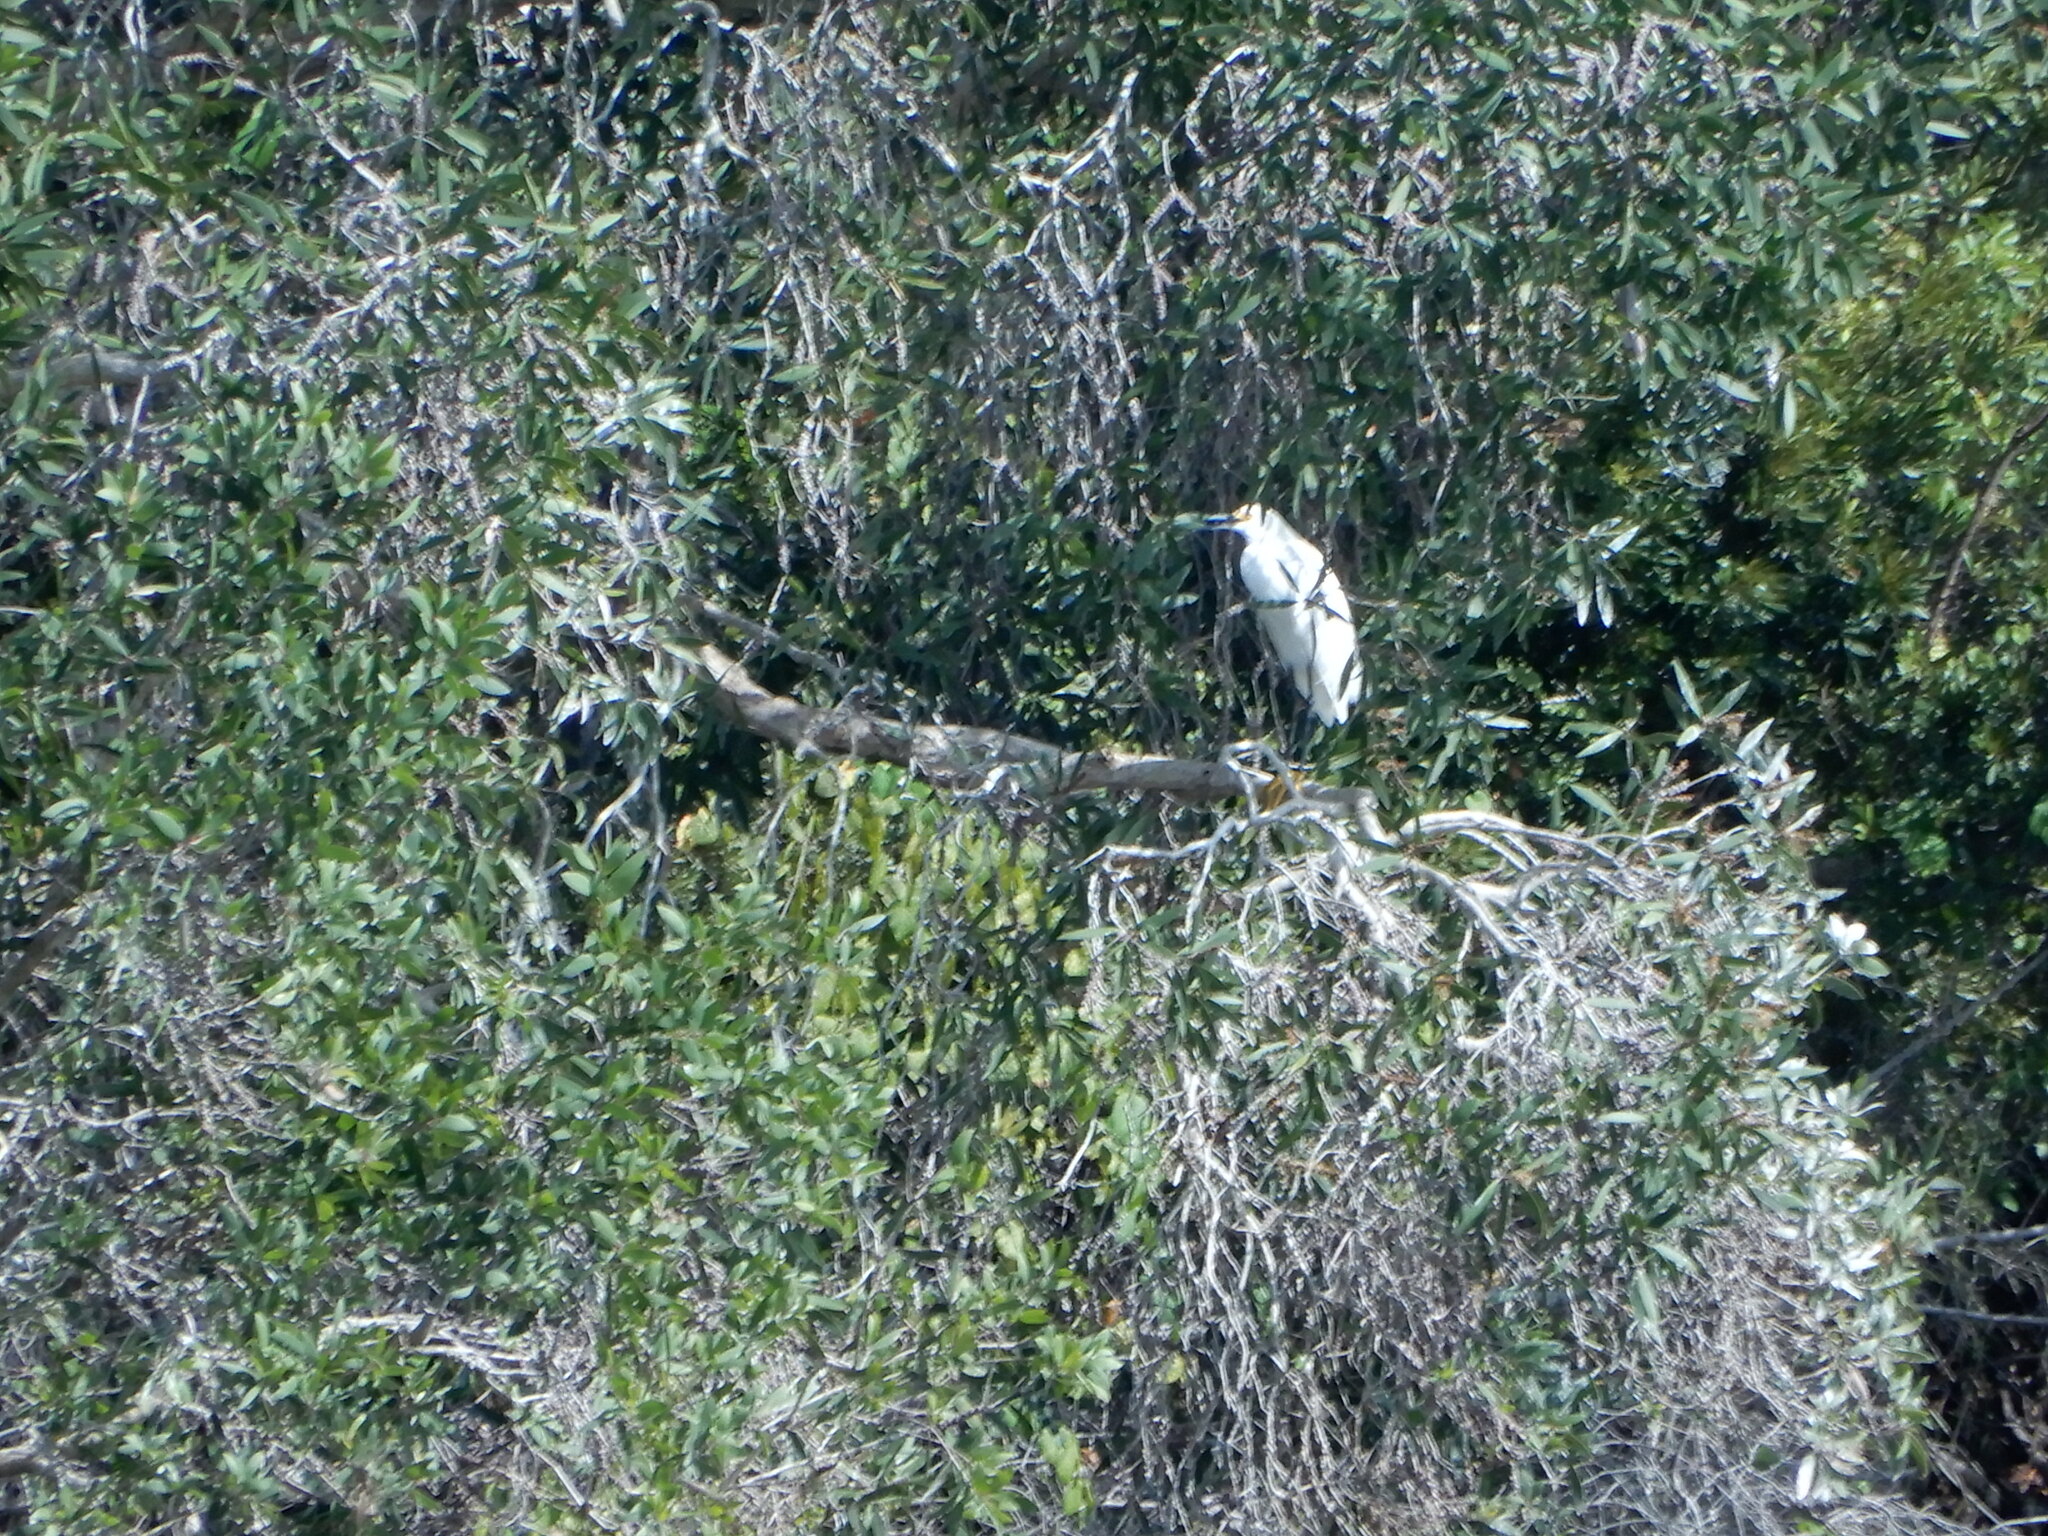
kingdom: Animalia
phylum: Chordata
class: Aves
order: Pelecaniformes
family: Ardeidae
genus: Egretta
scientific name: Egretta thula
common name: Snowy egret
